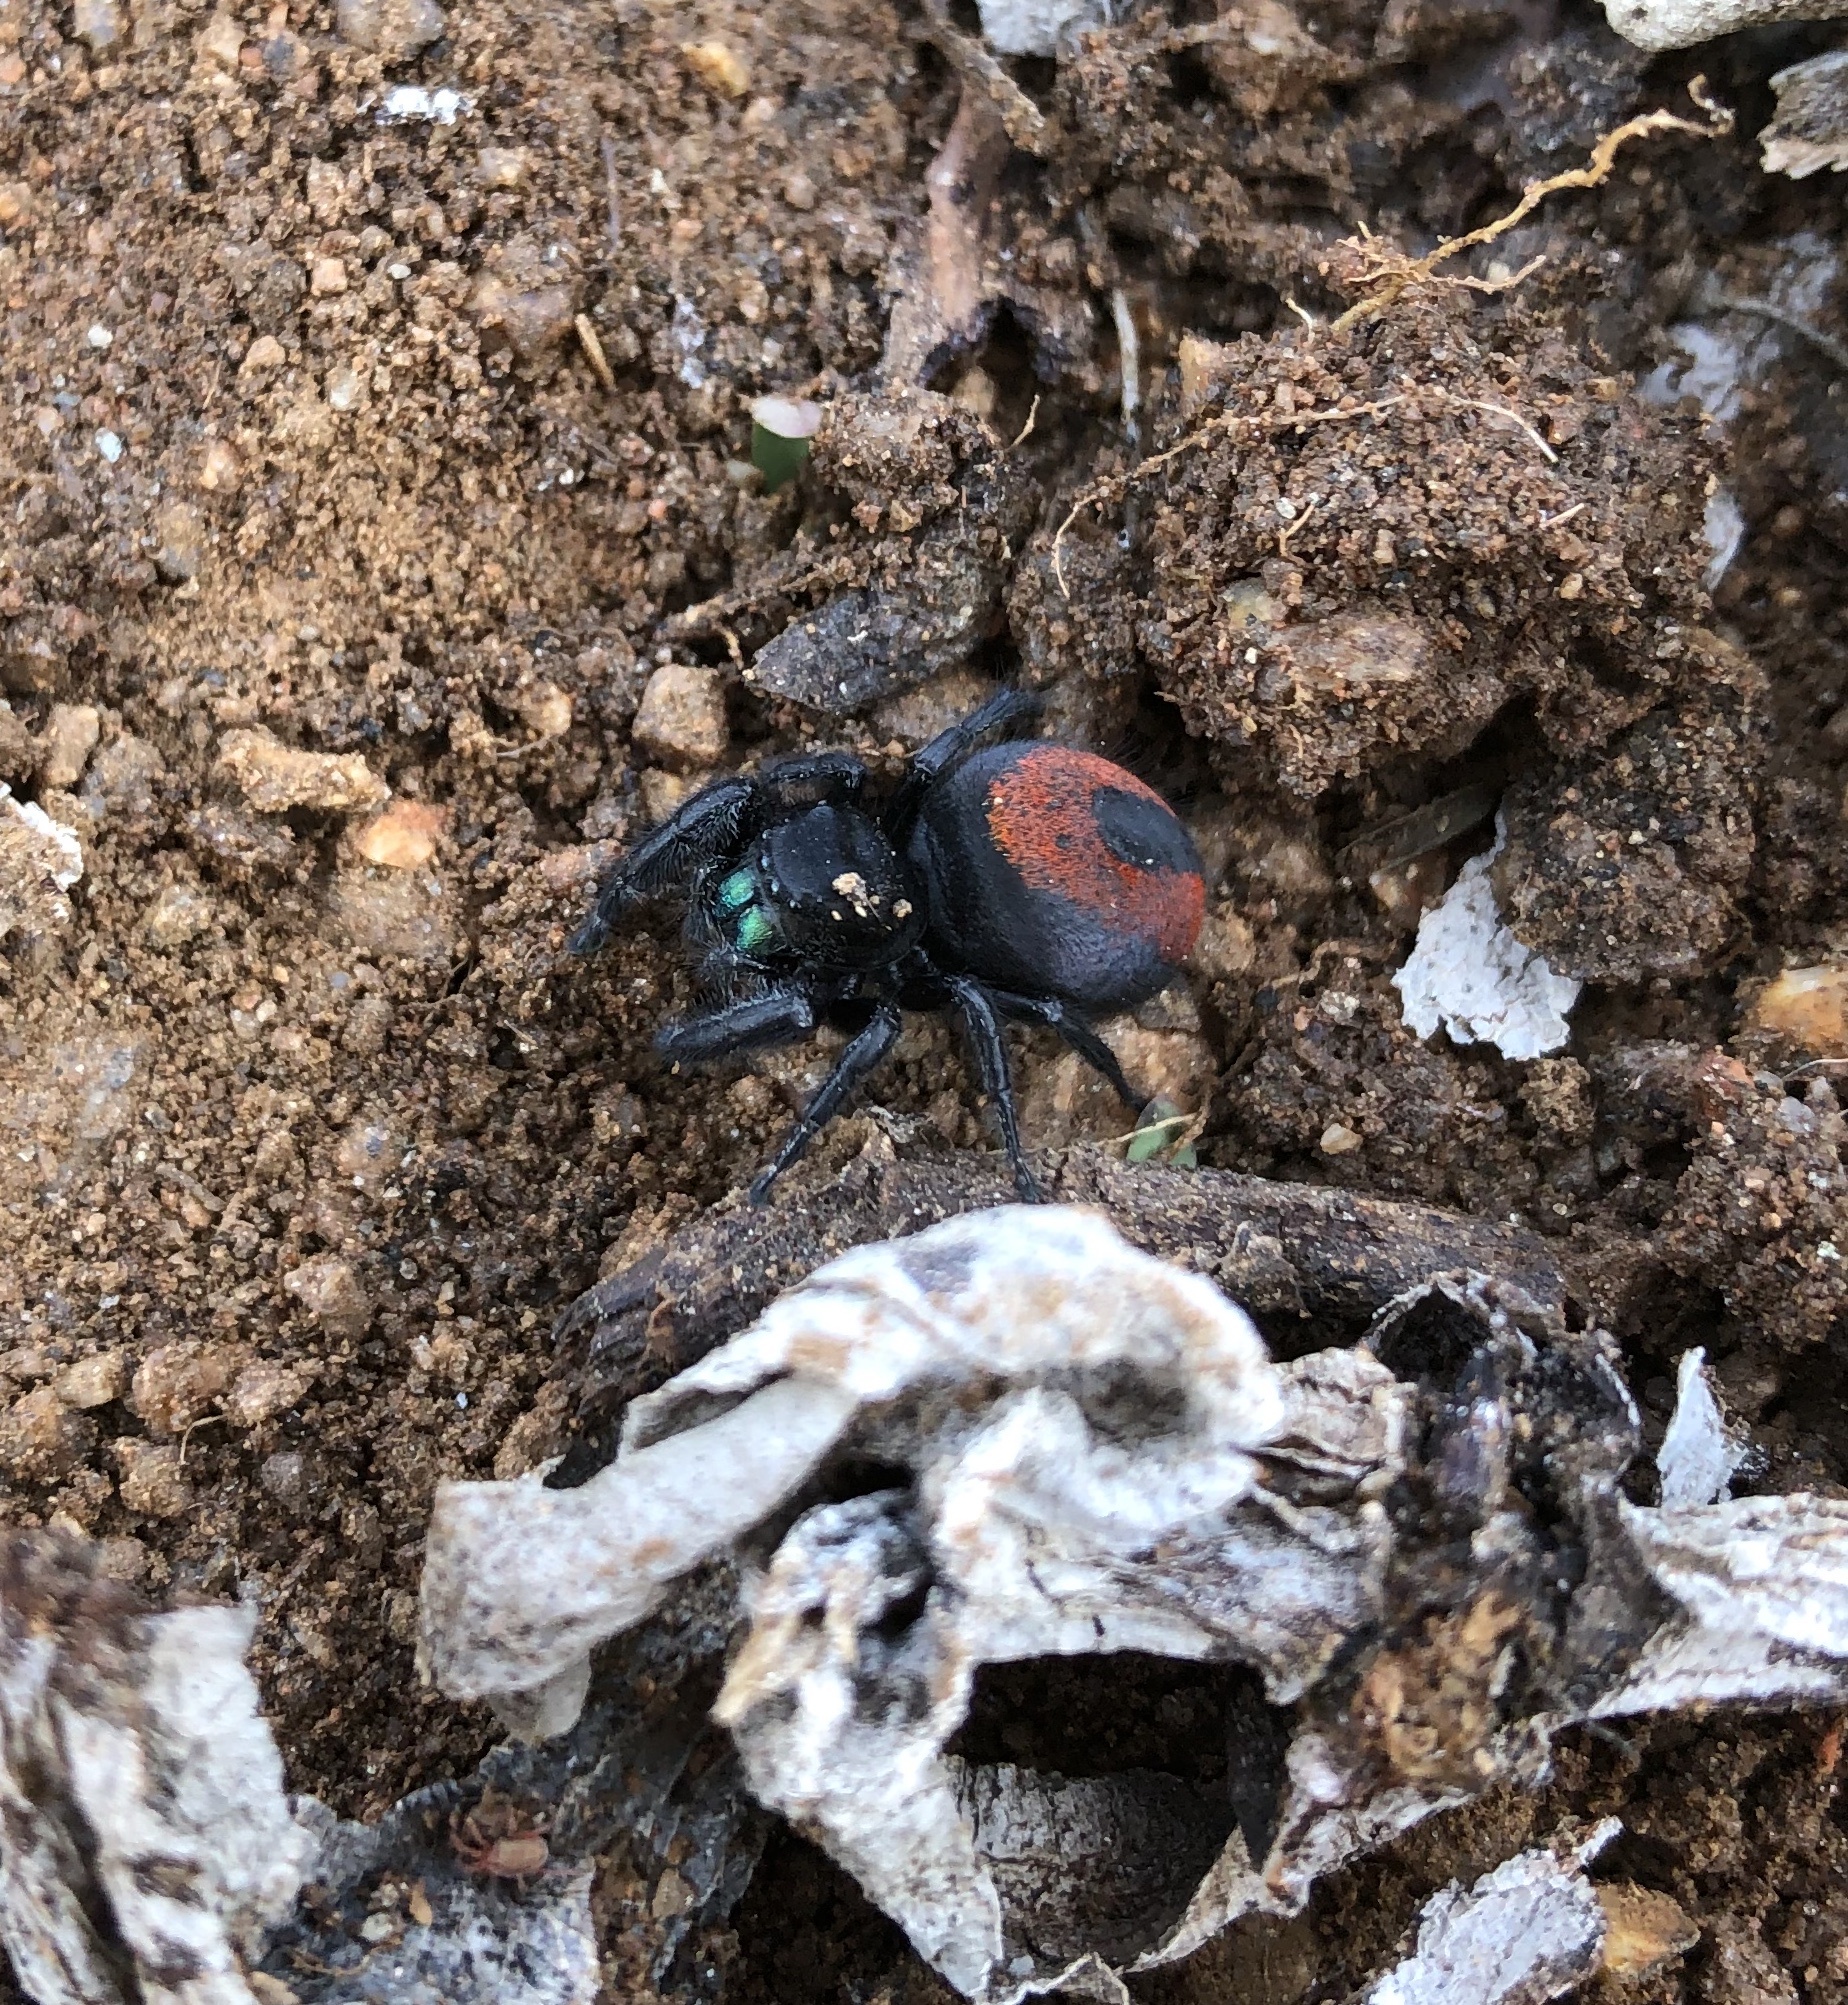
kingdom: Animalia
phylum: Arthropoda
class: Arachnida
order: Araneae
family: Salticidae
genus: Phidippus
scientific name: Phidippus johnsoni
